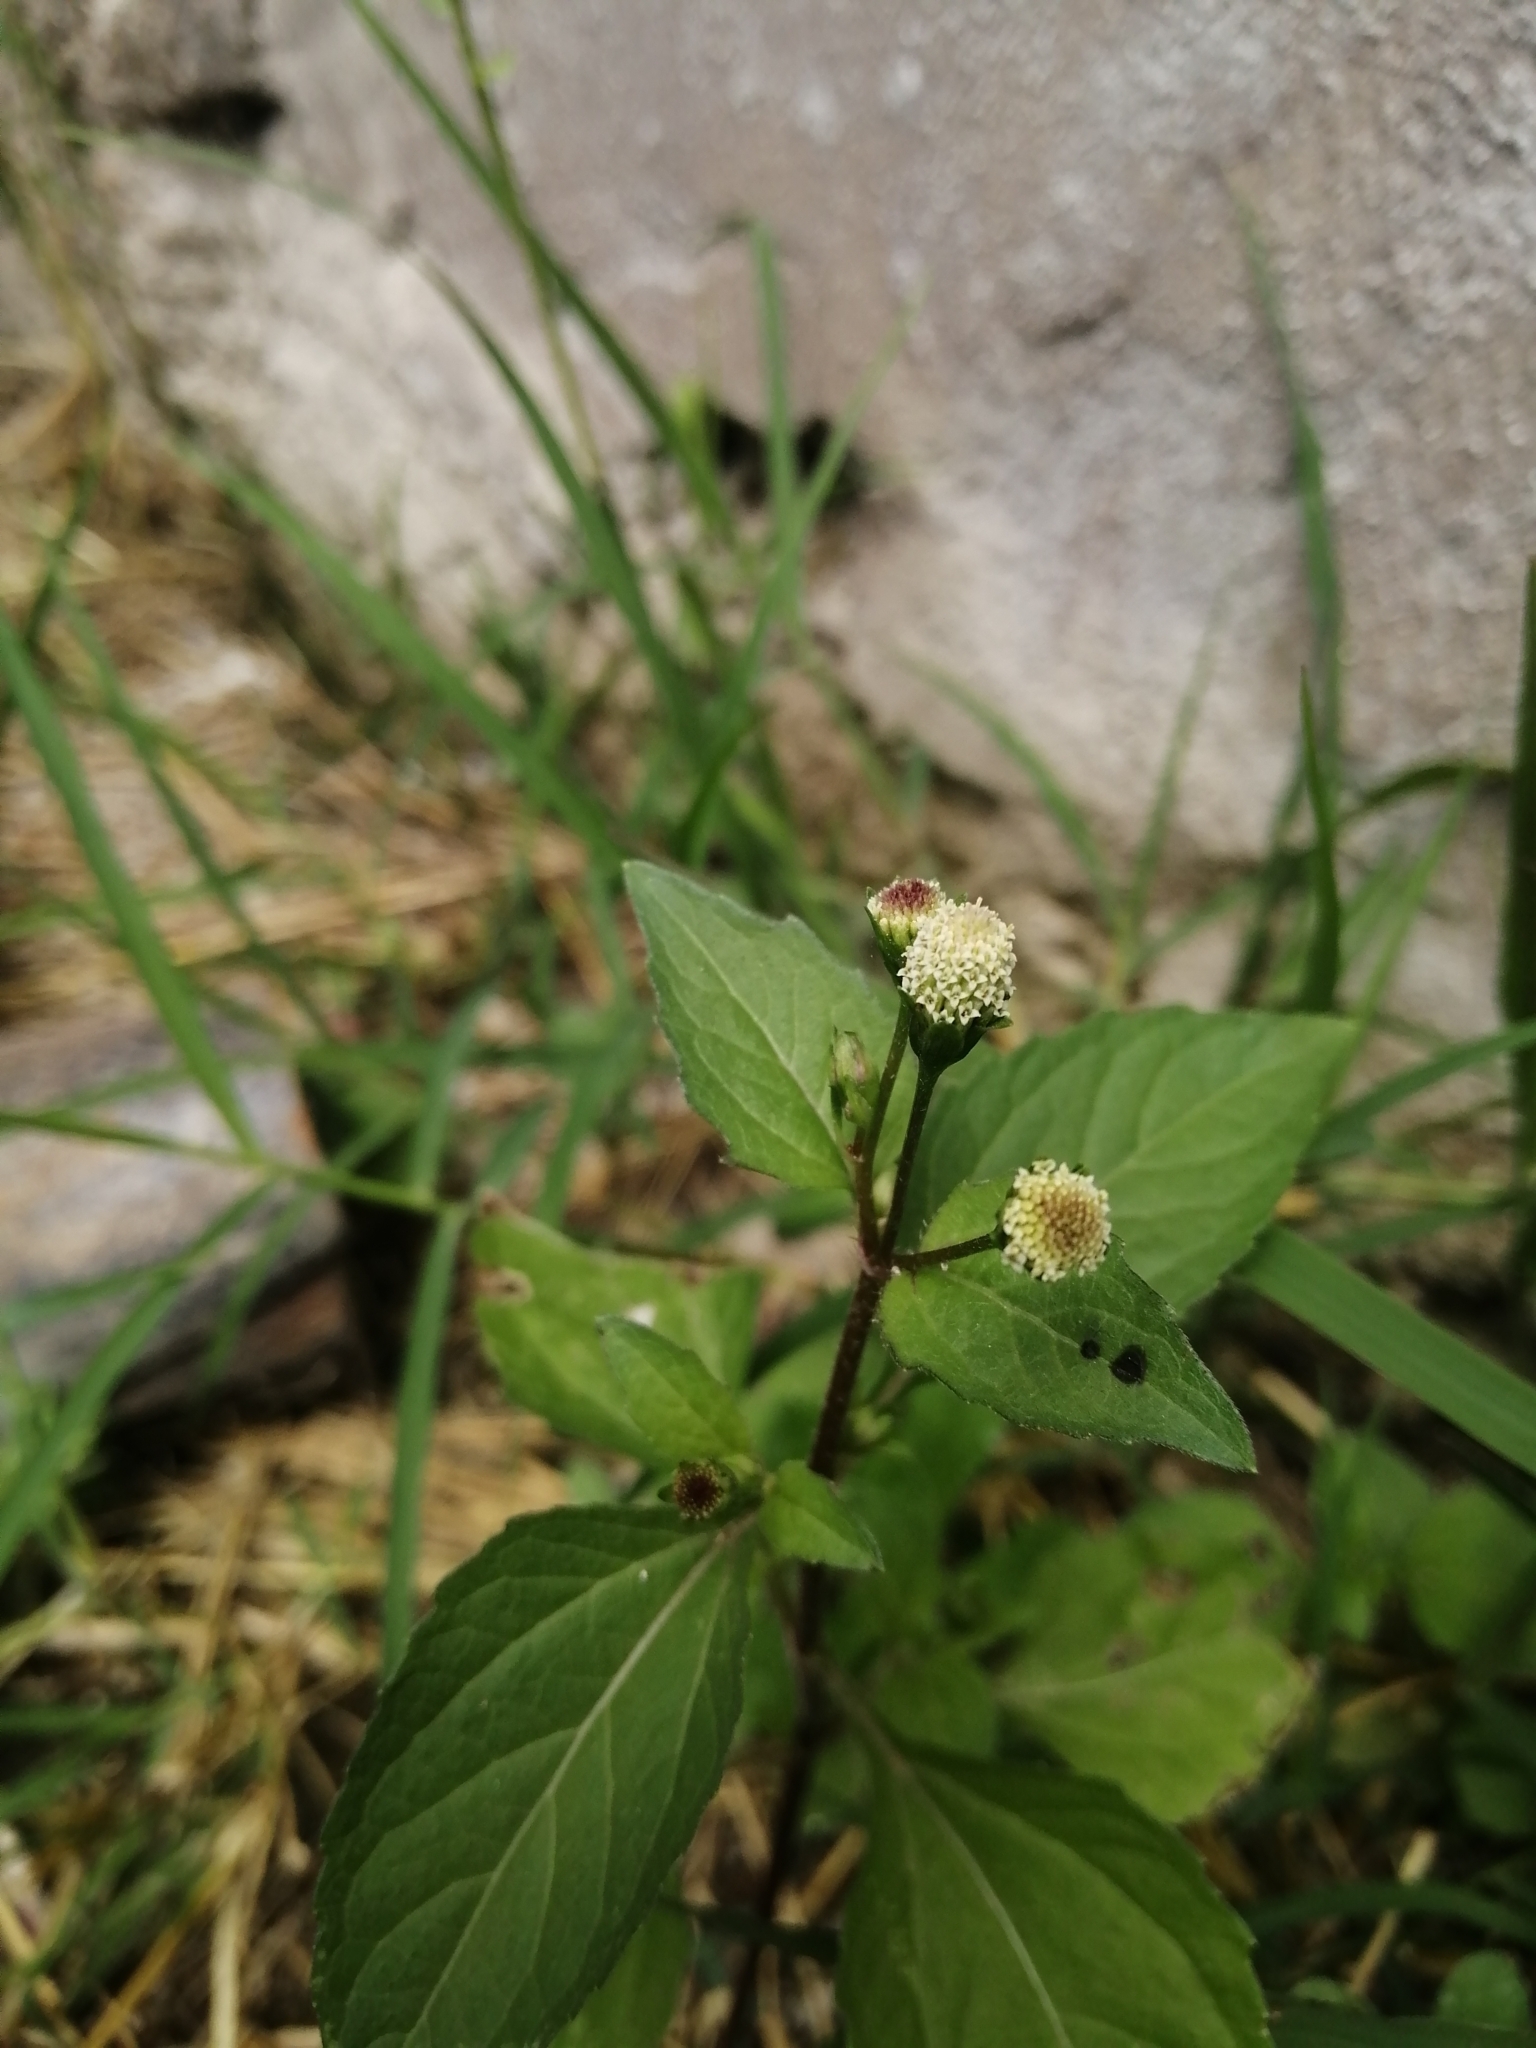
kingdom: Plantae
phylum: Tracheophyta
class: Magnoliopsida
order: Asterales
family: Asteraceae
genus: Acmella
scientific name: Acmella radicans
